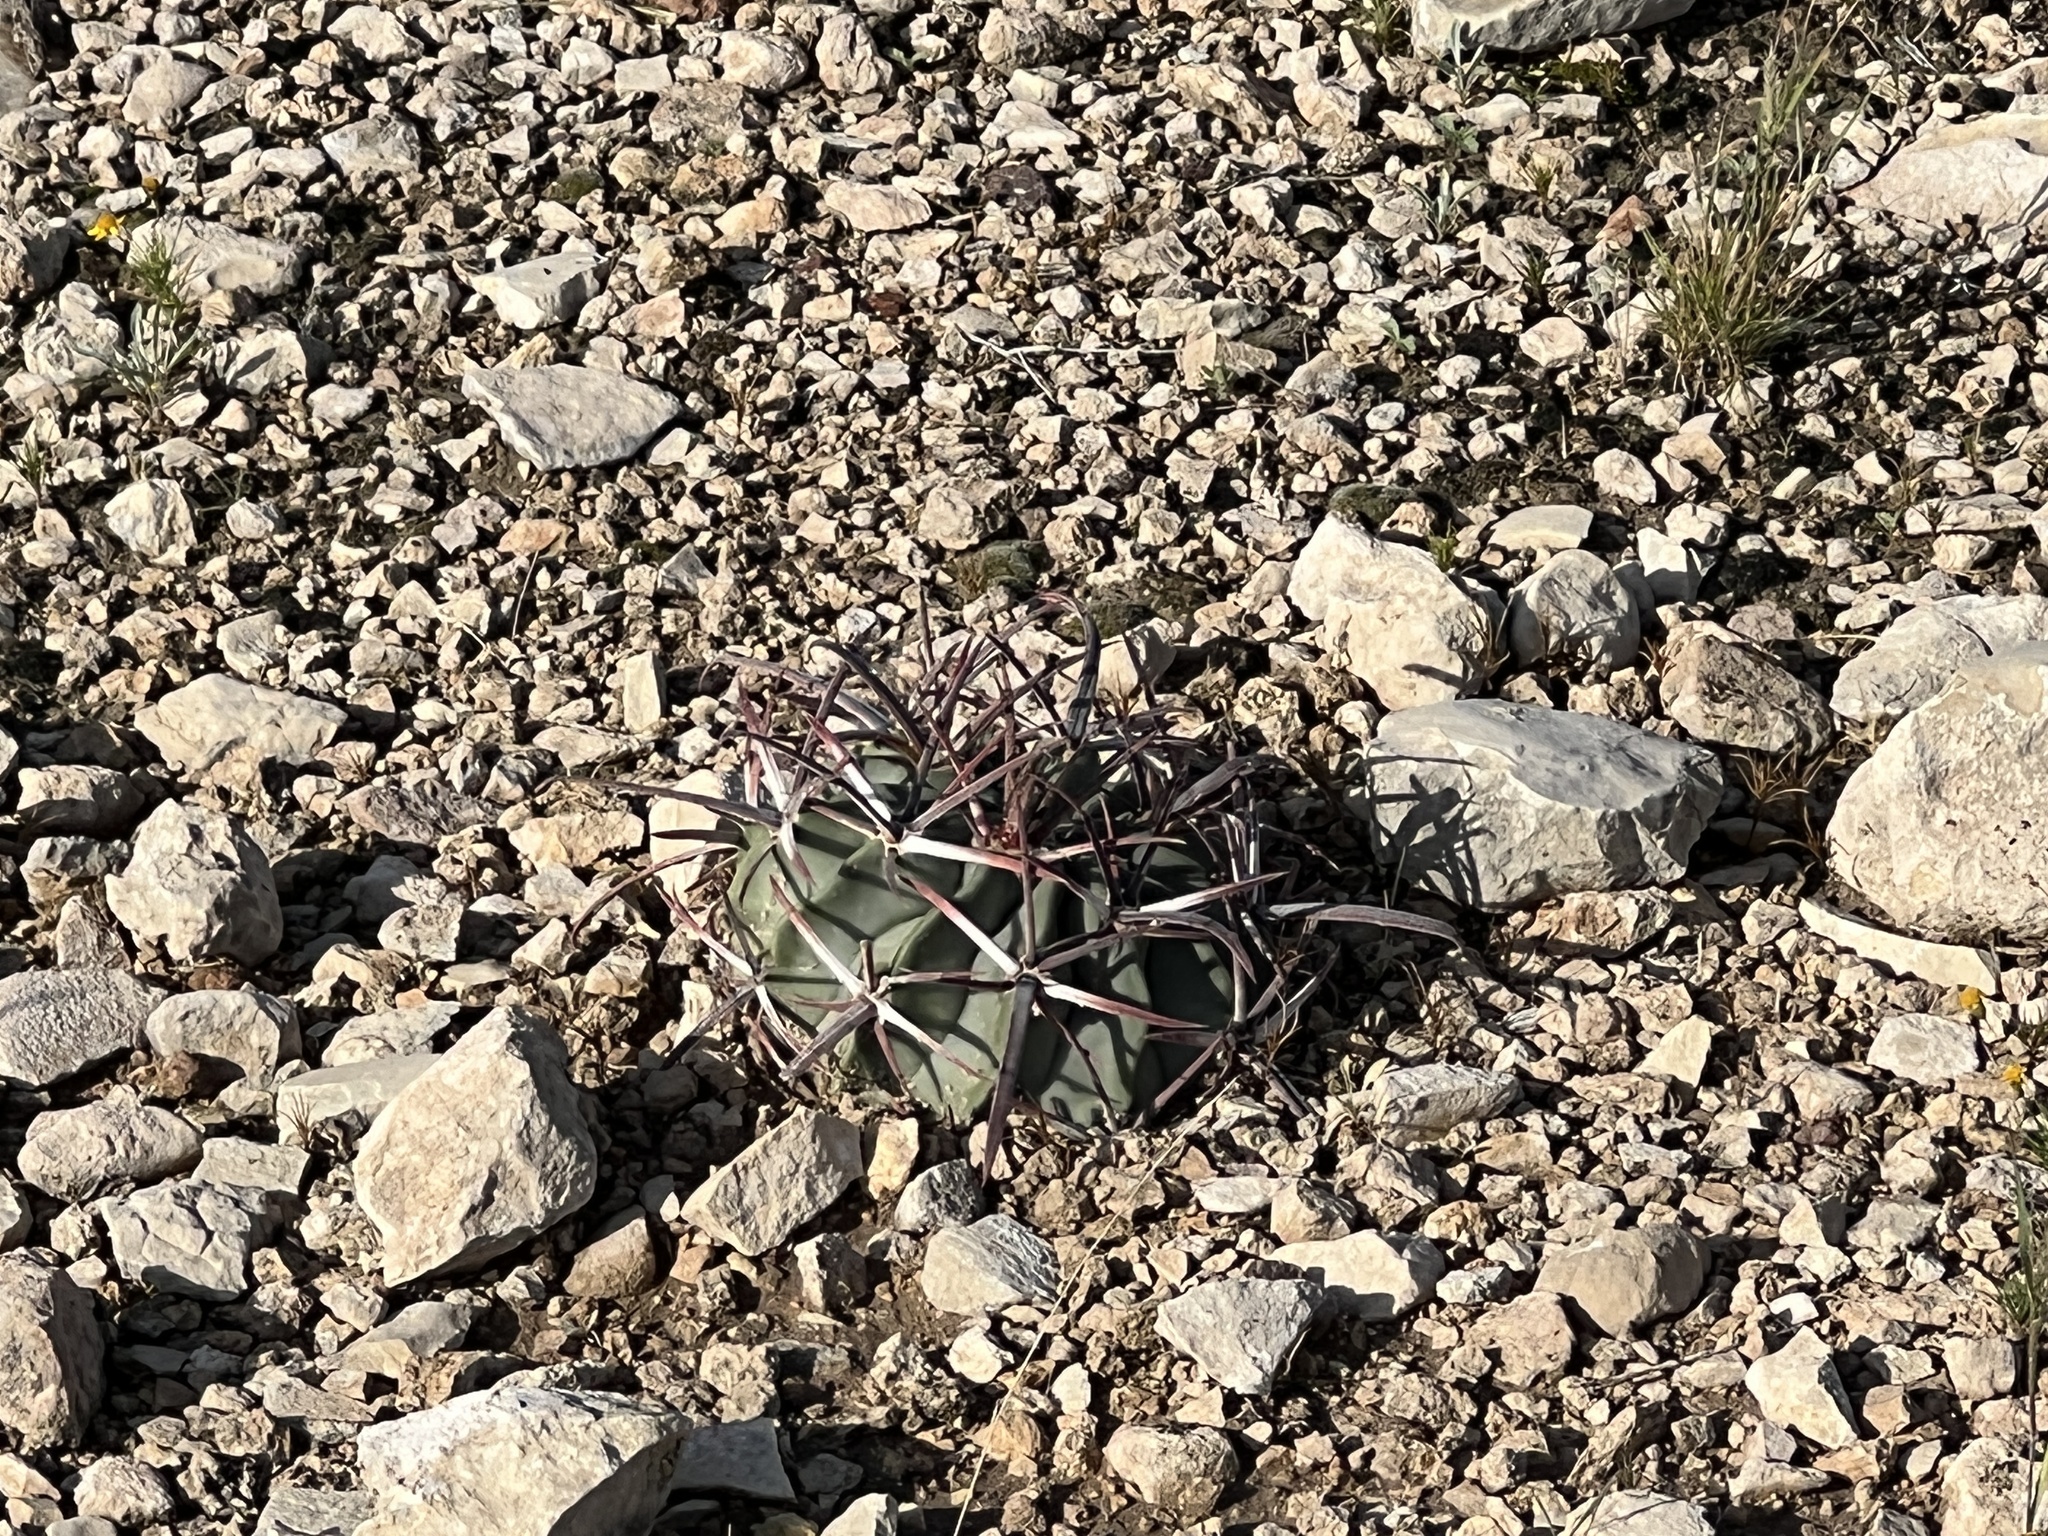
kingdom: Plantae
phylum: Tracheophyta
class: Magnoliopsida
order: Caryophyllales
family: Cactaceae
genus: Echinocactus
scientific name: Echinocactus texensis
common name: Devil's pincushion
